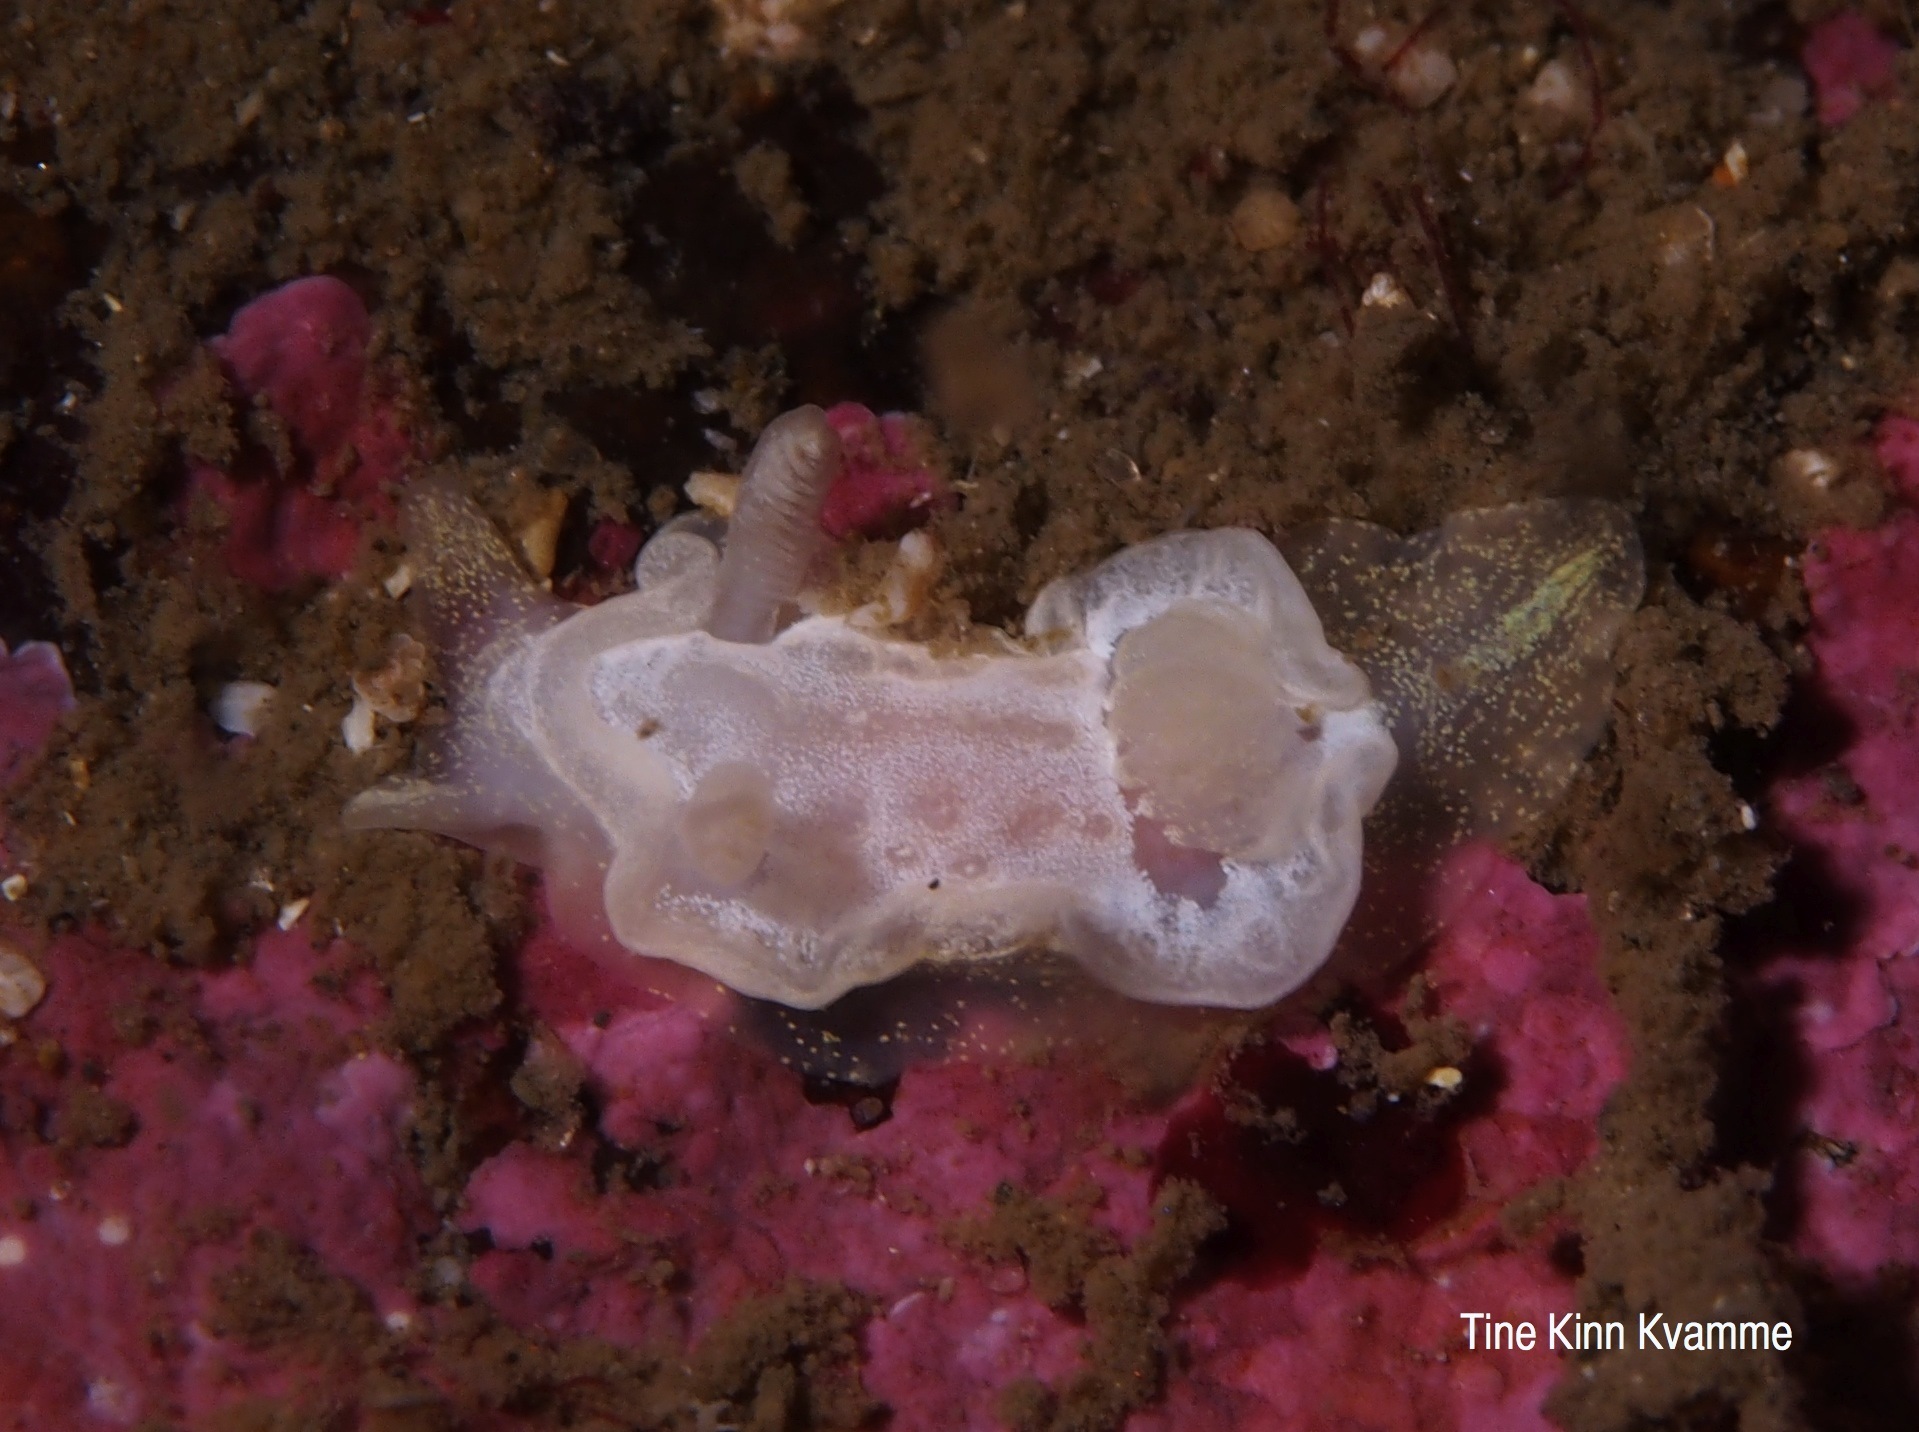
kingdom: Animalia
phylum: Mollusca
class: Gastropoda
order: Nudibranchia
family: Goniodorididae
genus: Okenia
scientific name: Okenia
